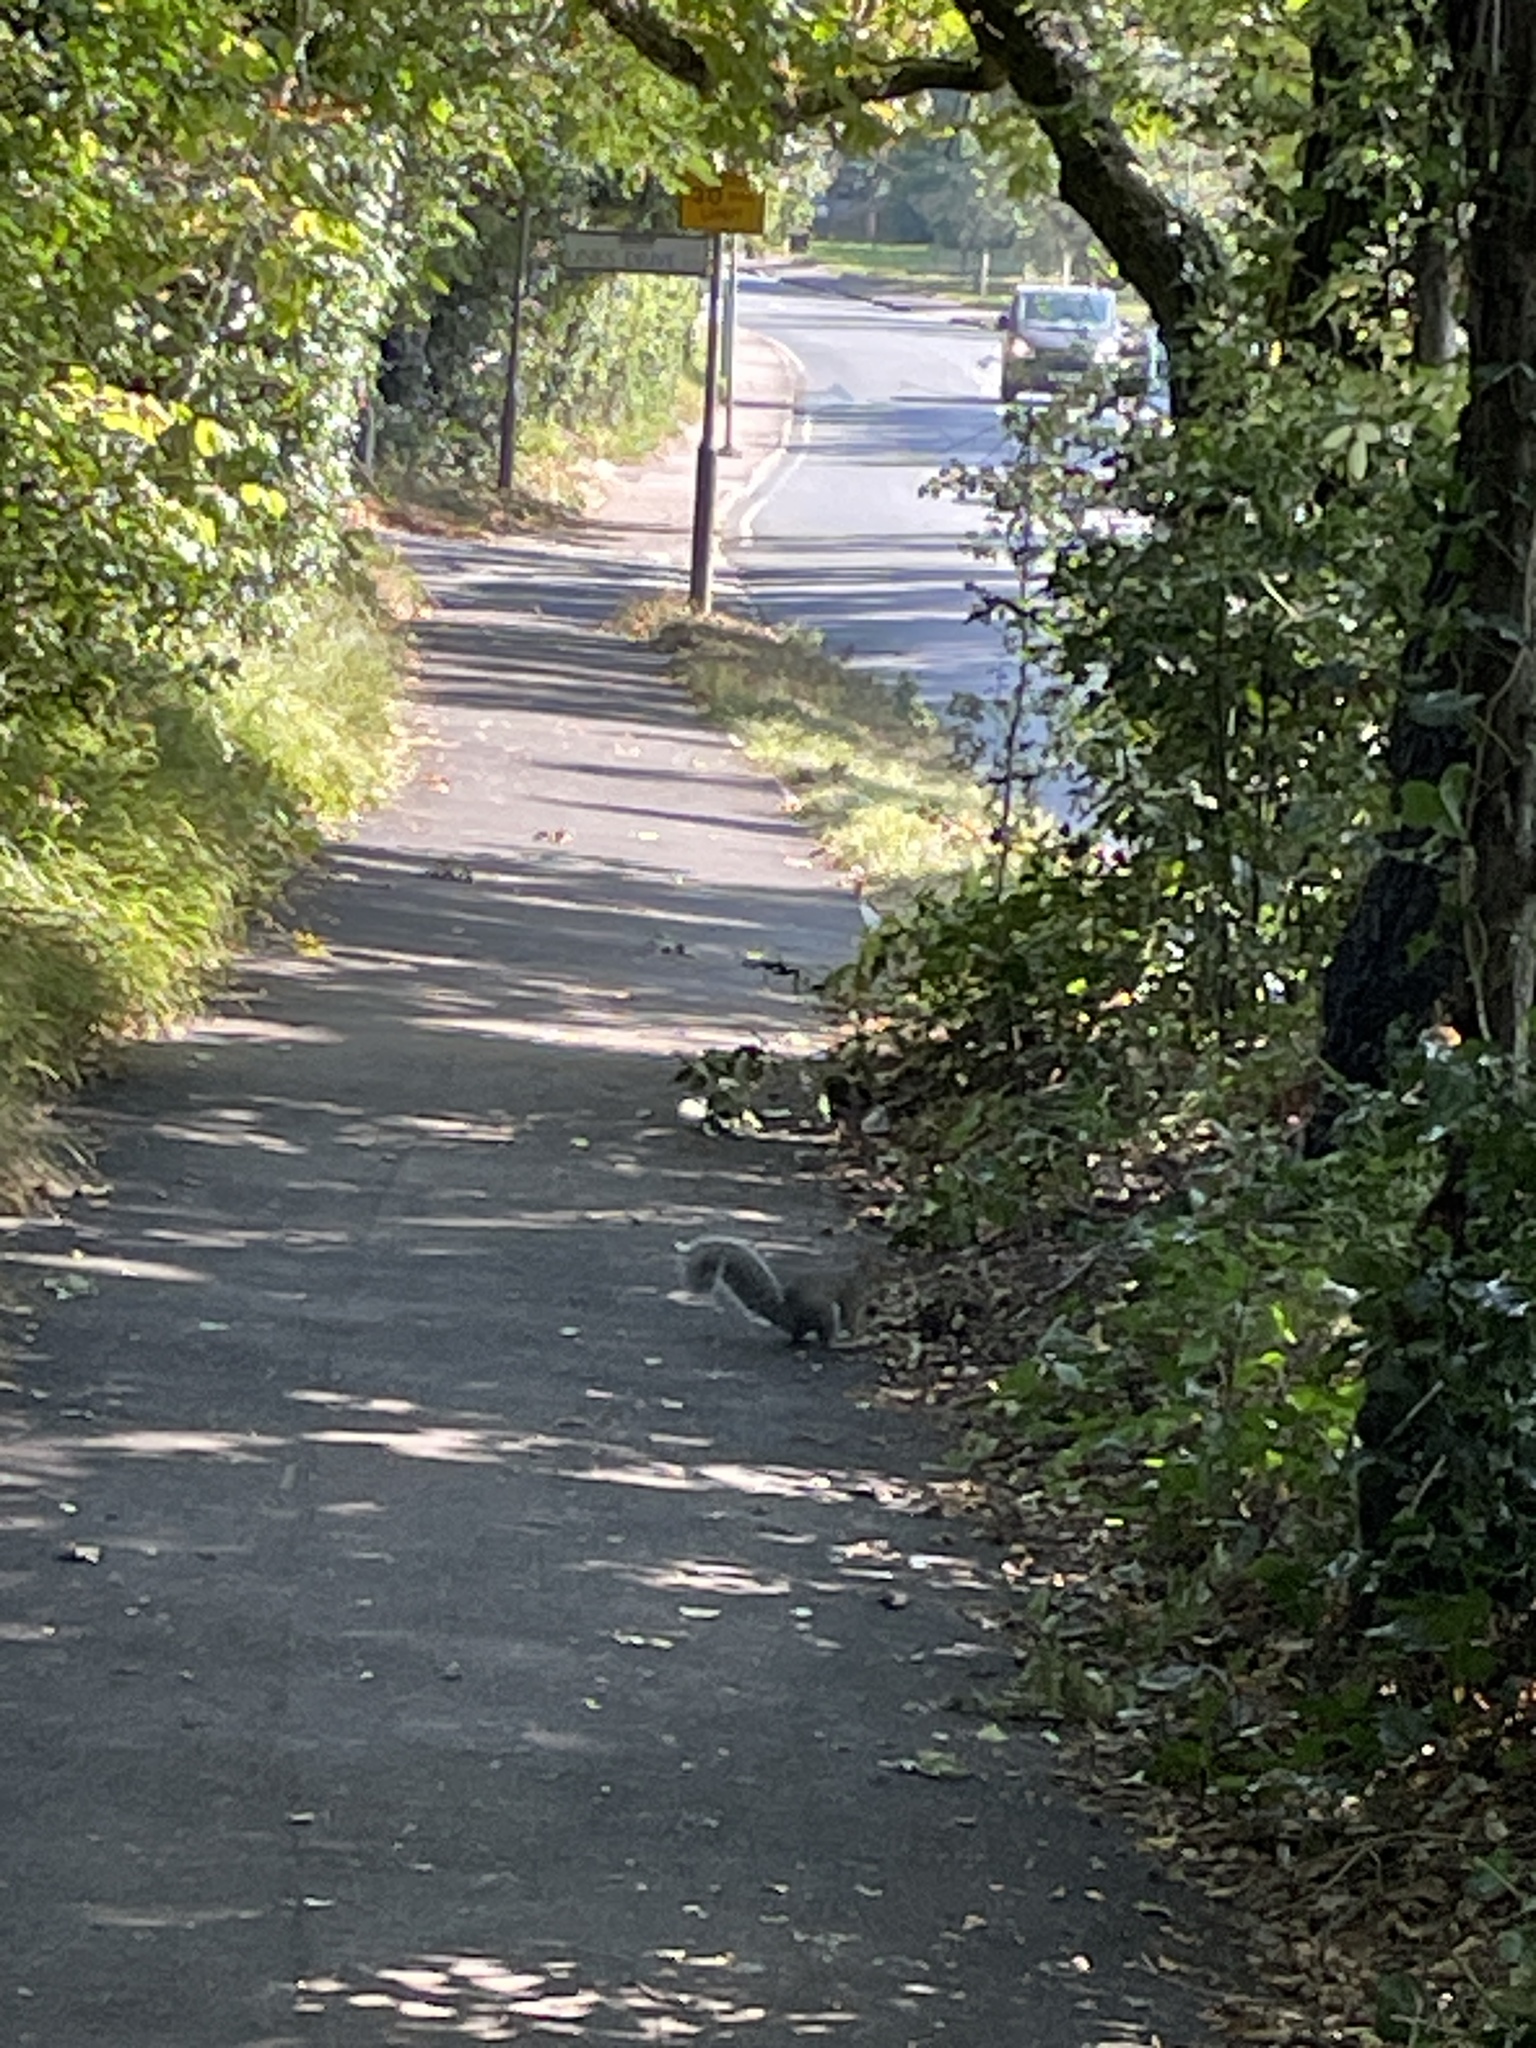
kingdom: Animalia
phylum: Chordata
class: Mammalia
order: Rodentia
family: Sciuridae
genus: Sciurus
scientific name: Sciurus carolinensis
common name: Eastern gray squirrel
